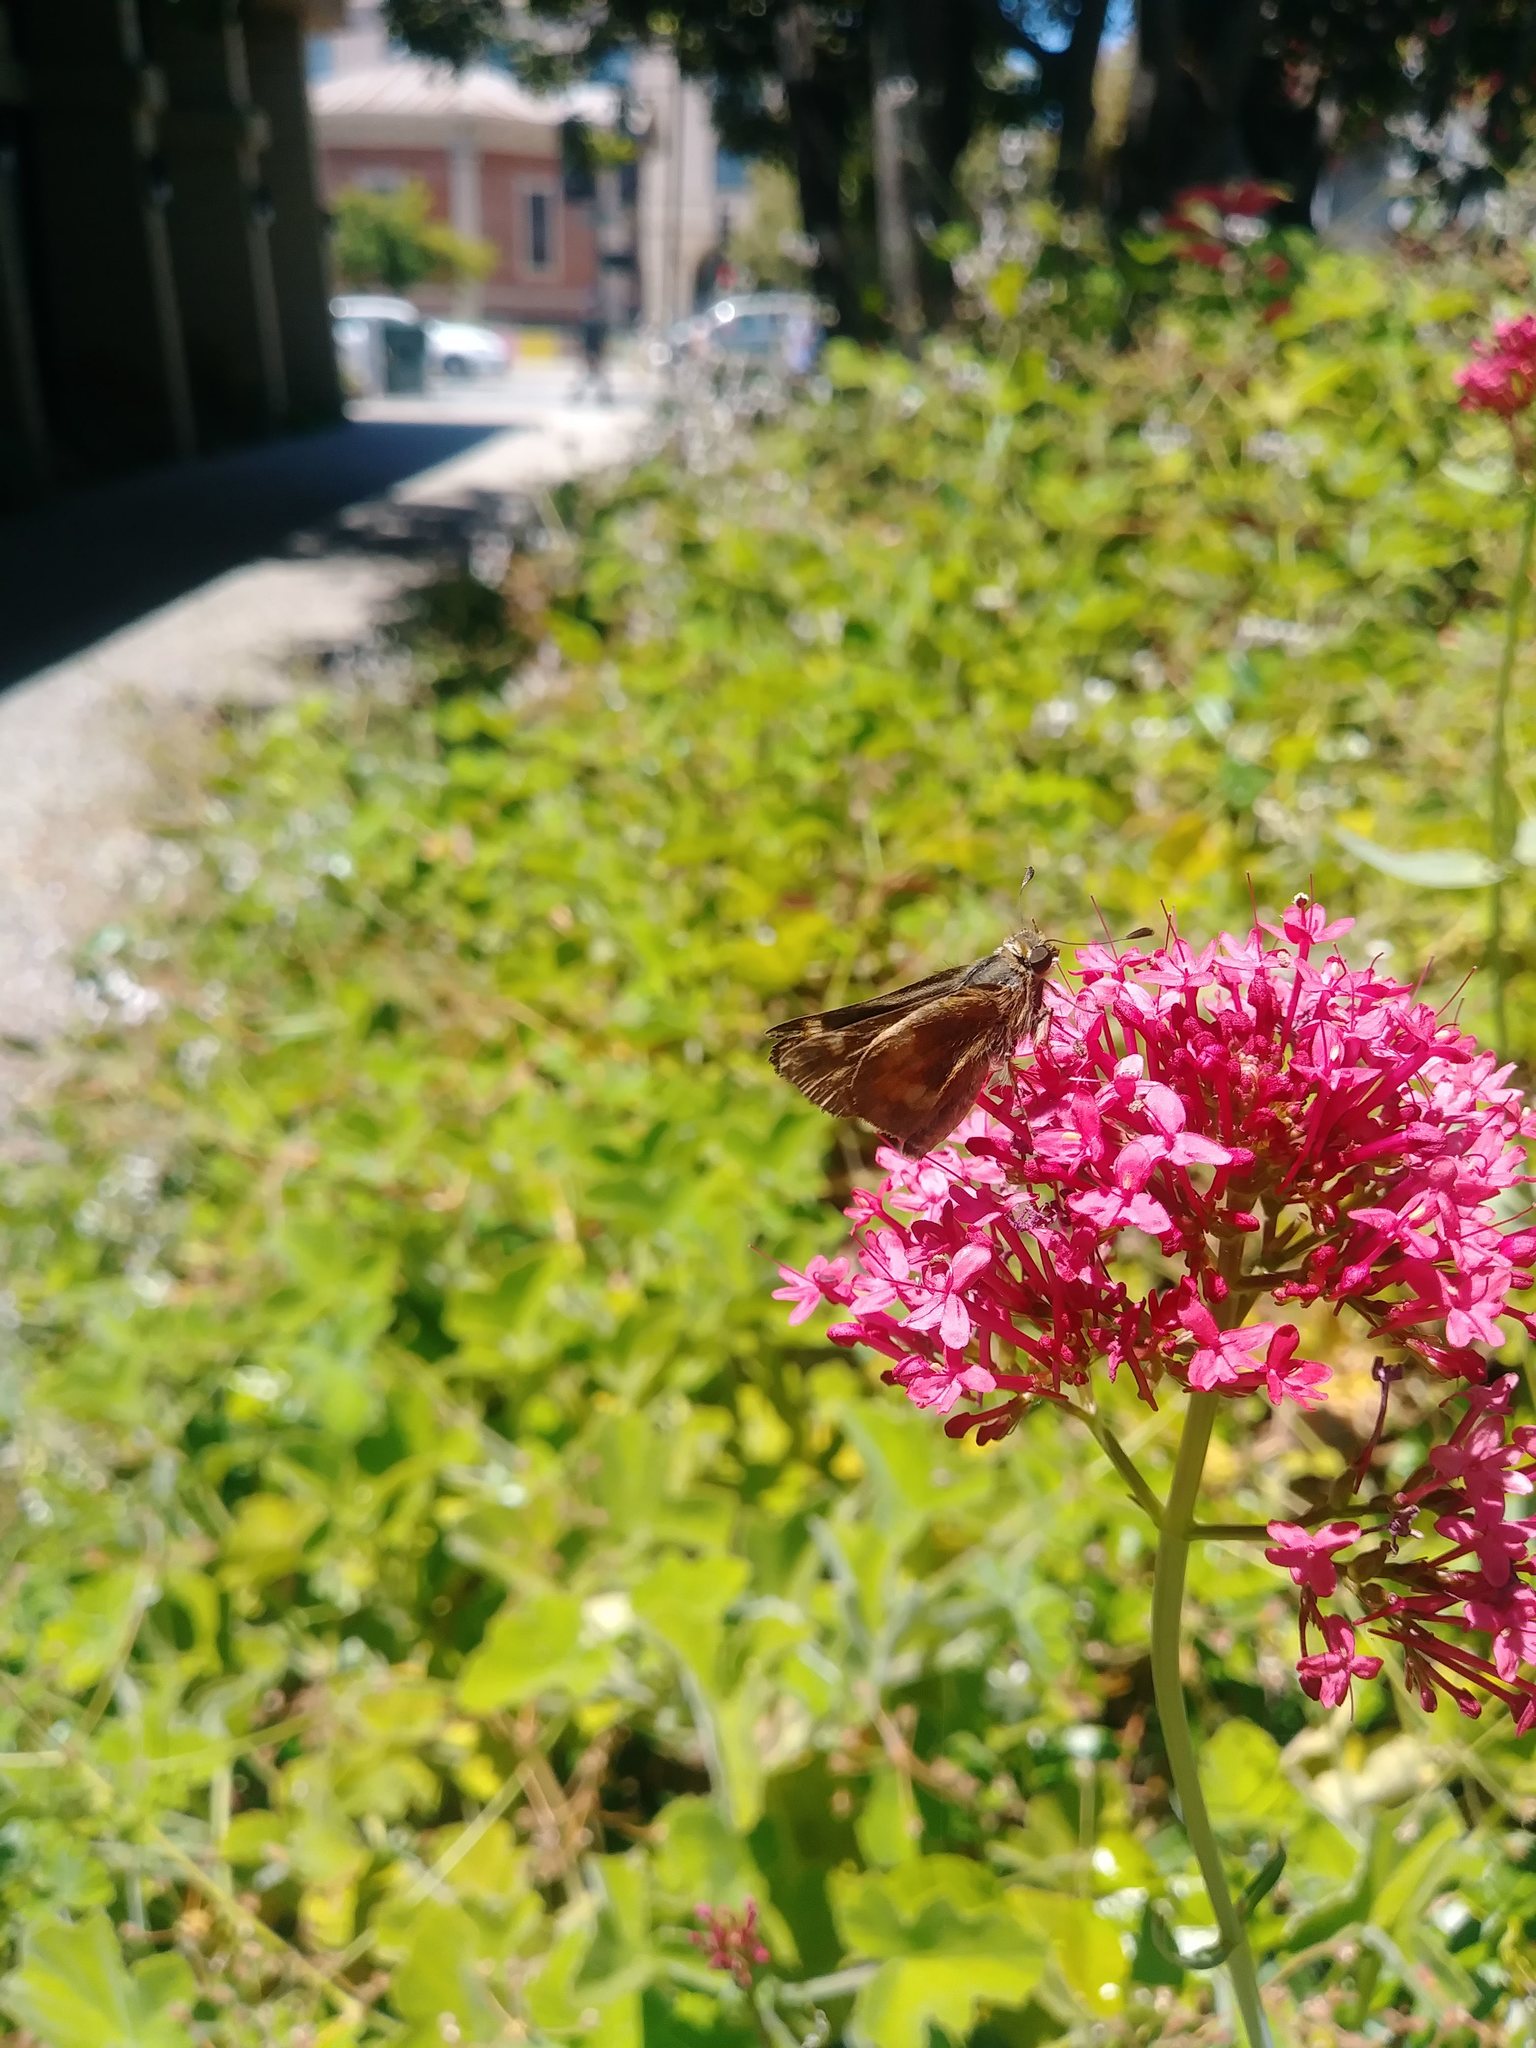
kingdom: Animalia
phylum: Arthropoda
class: Insecta
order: Lepidoptera
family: Hesperiidae
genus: Lon
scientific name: Lon melane
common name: Umber skipper
